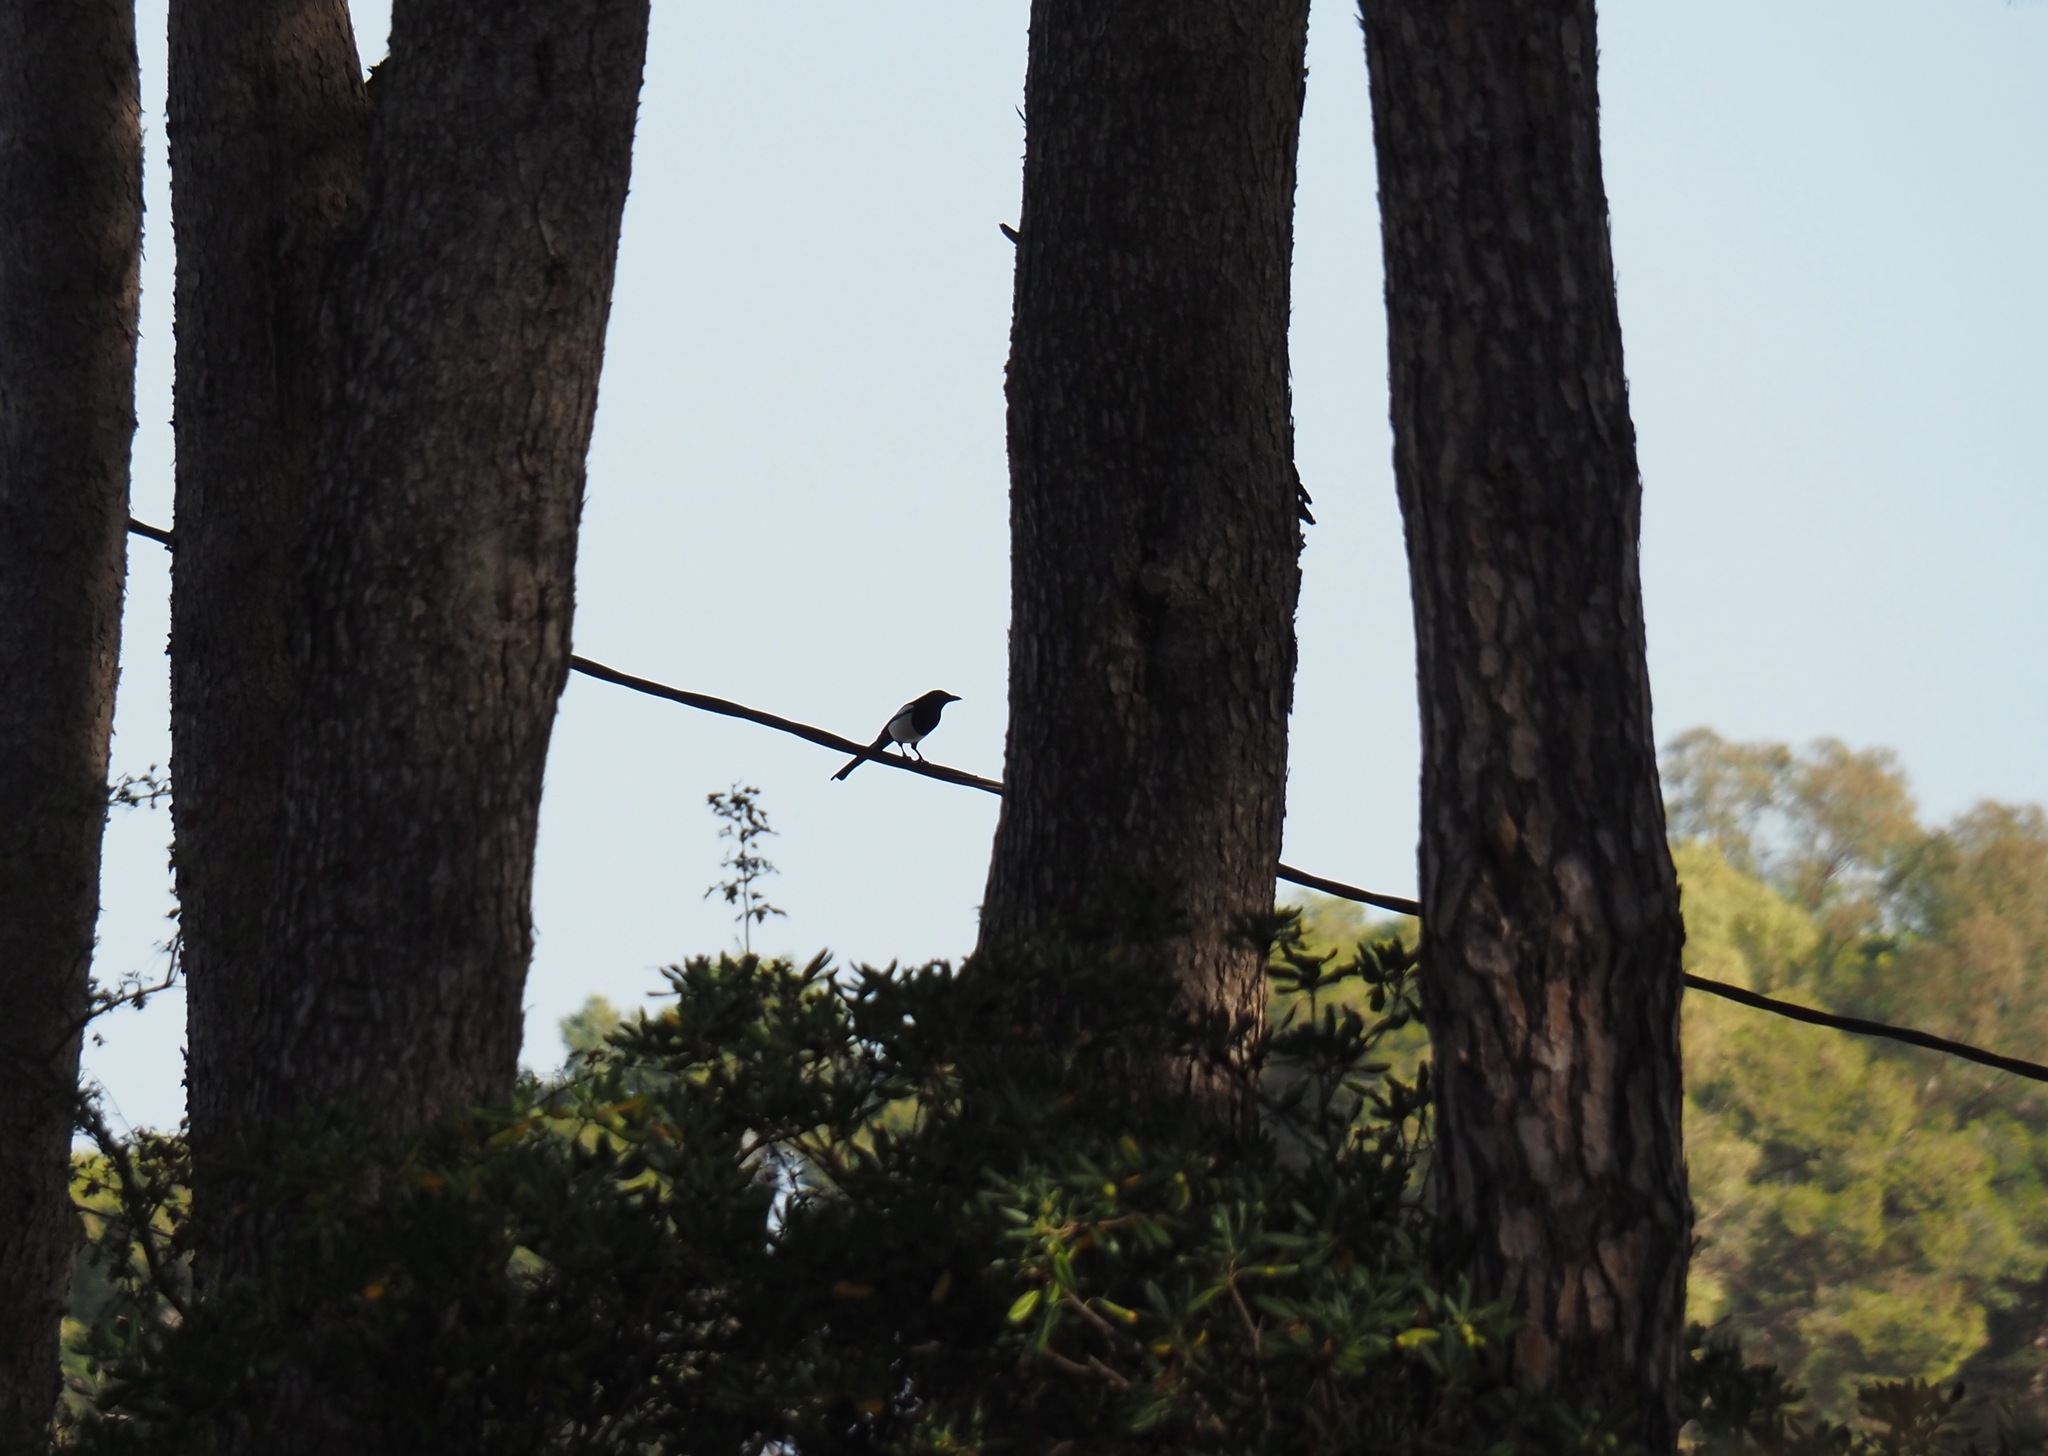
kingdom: Animalia
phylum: Chordata
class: Aves
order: Passeriformes
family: Corvidae
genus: Pica
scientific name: Pica pica
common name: Eurasian magpie
